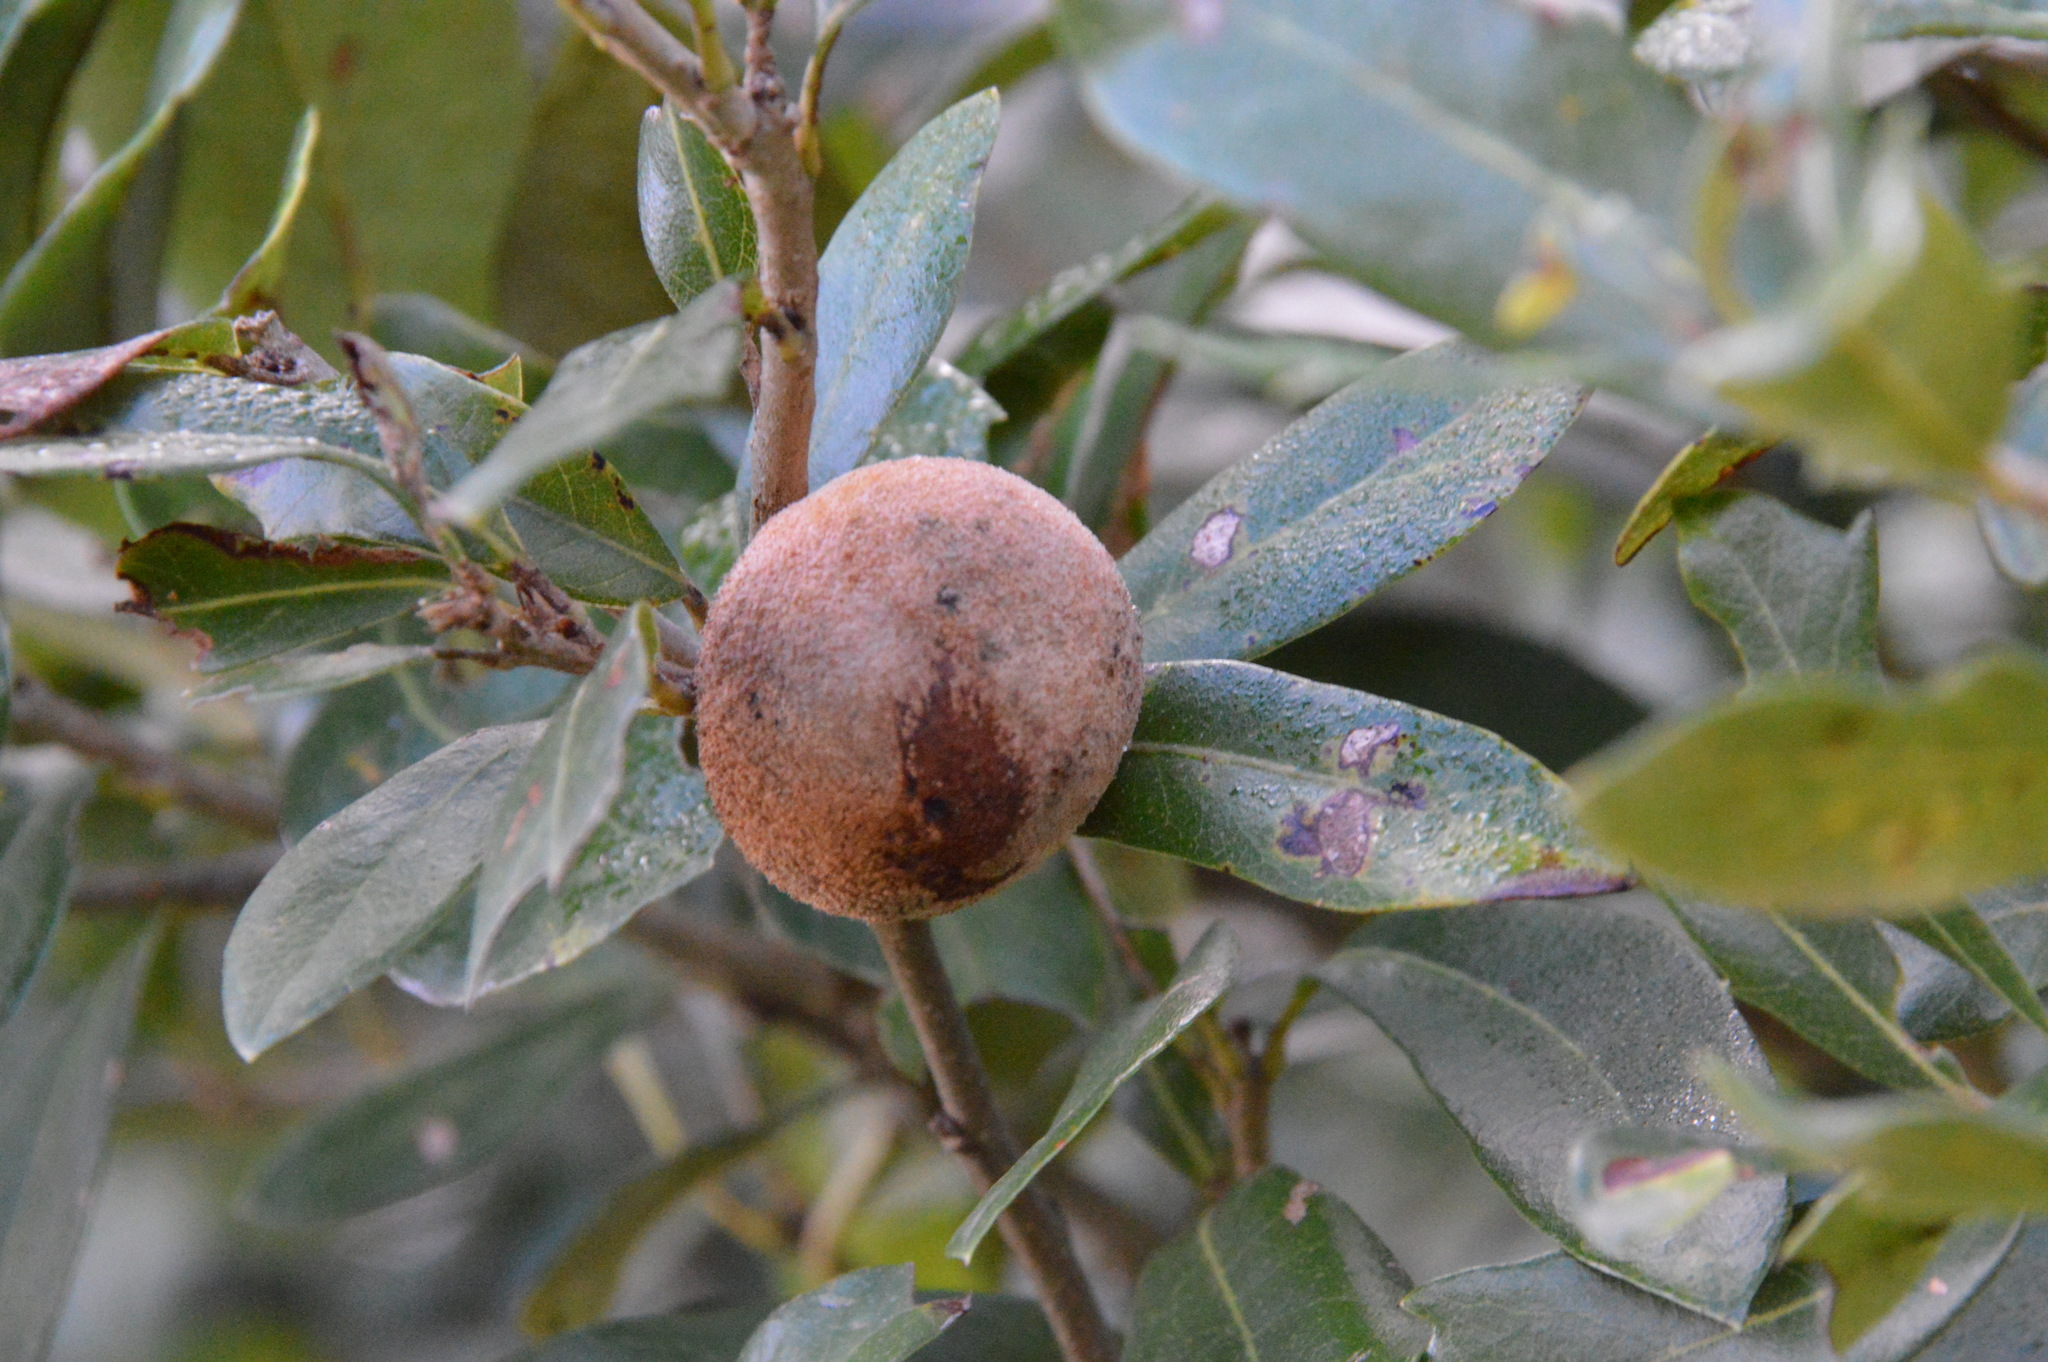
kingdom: Animalia
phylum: Arthropoda
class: Insecta
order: Hymenoptera
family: Cynipidae
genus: Disholcaspis
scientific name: Disholcaspis
